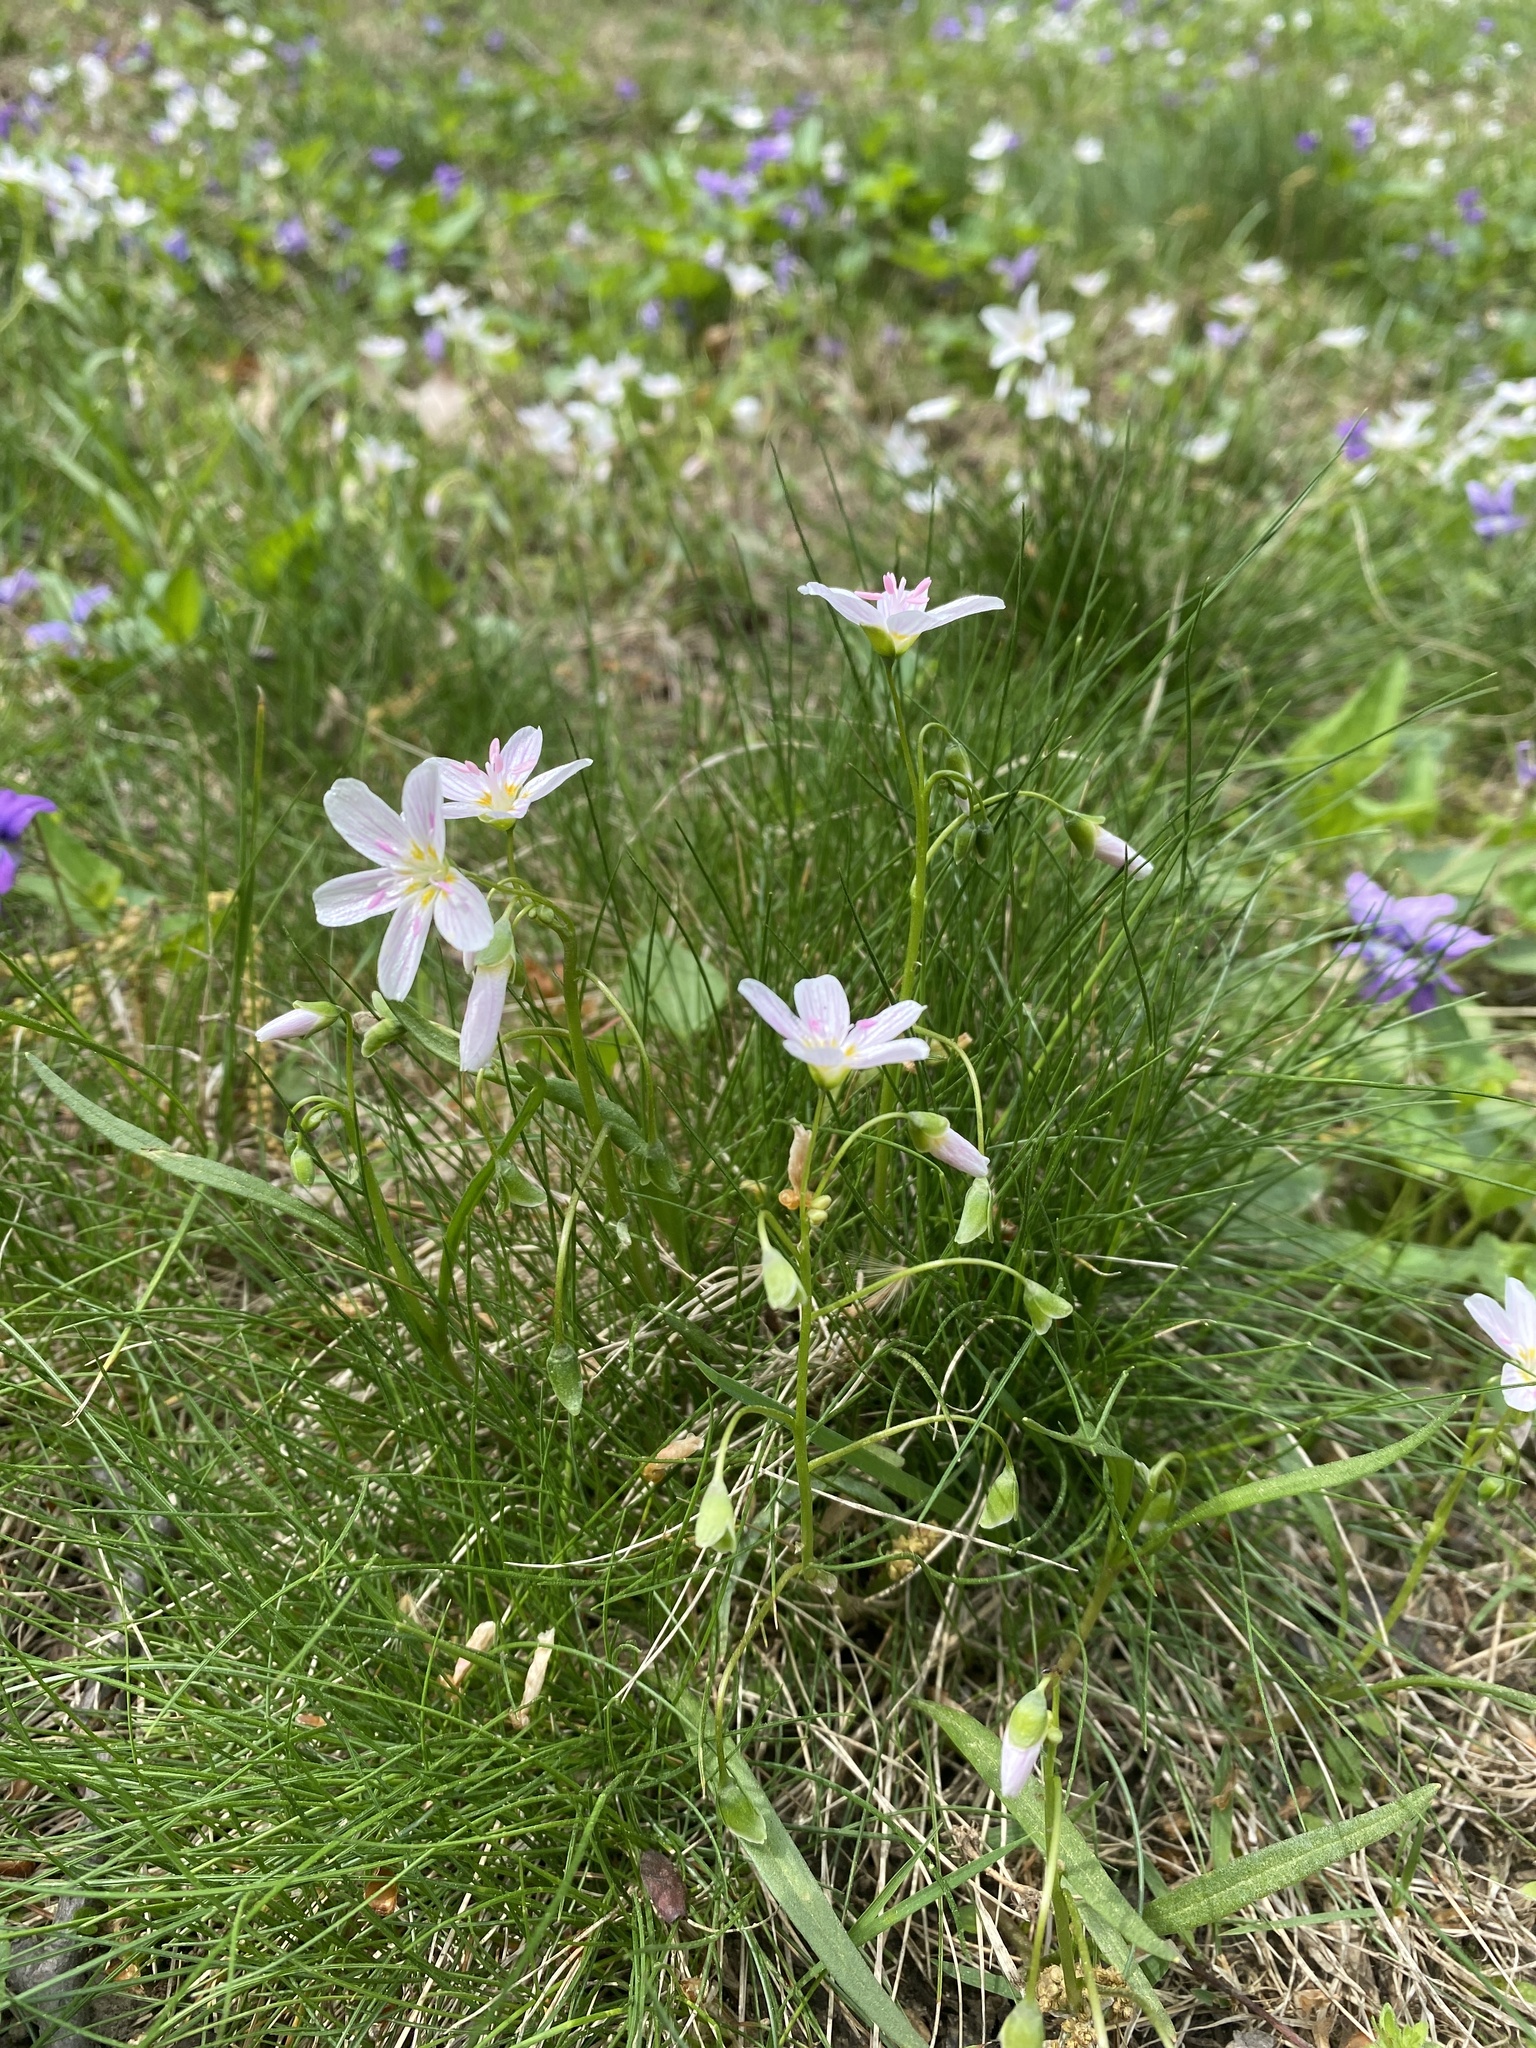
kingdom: Plantae
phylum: Tracheophyta
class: Magnoliopsida
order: Caryophyllales
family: Montiaceae
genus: Claytonia
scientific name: Claytonia virginica
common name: Virginia springbeauty
